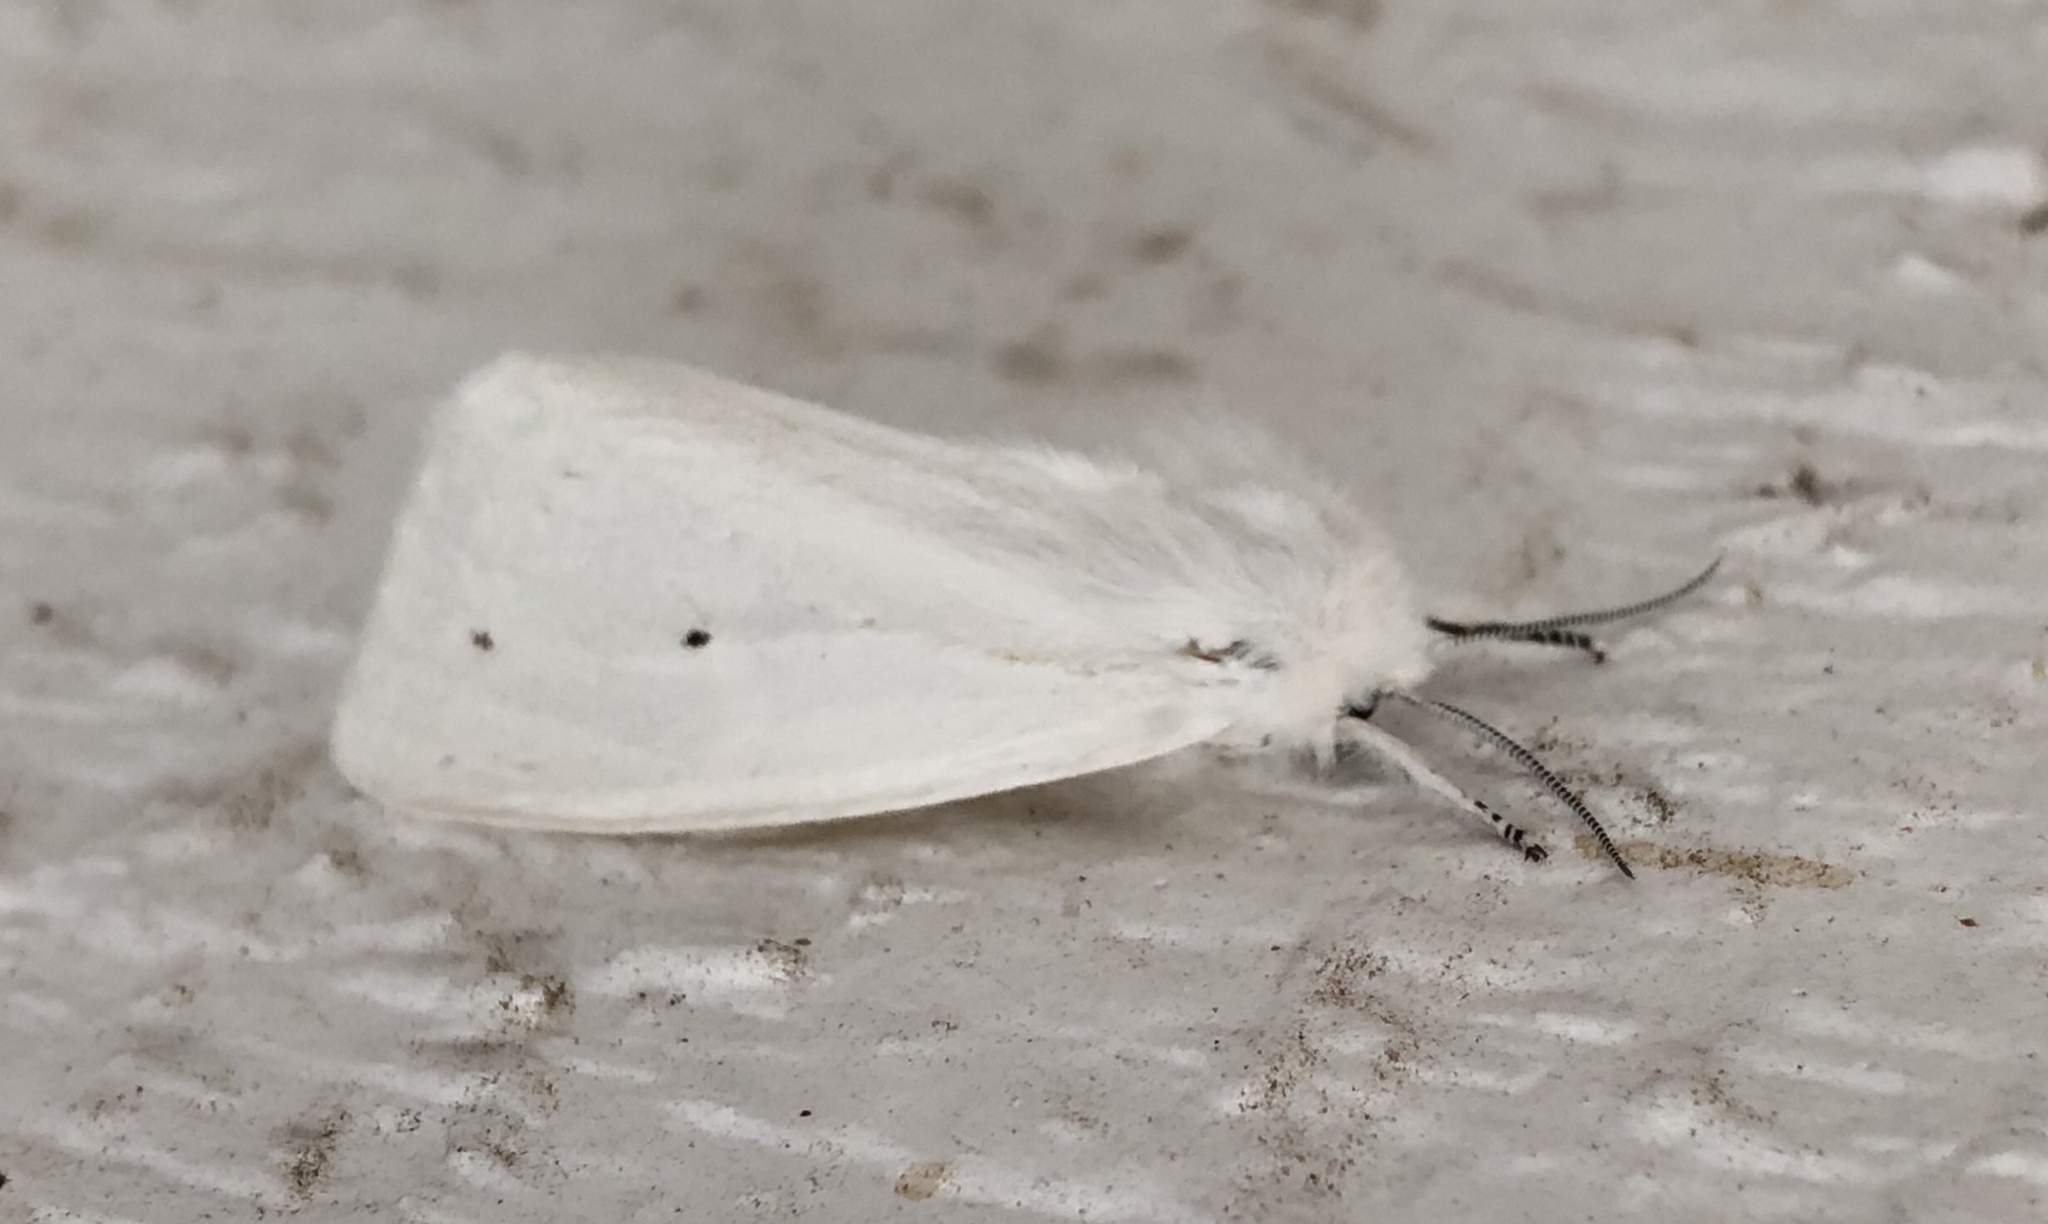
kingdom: Animalia
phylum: Arthropoda
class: Insecta
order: Lepidoptera
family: Erebidae
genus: Spilosoma
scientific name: Spilosoma virginica
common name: Virginia tiger moth
